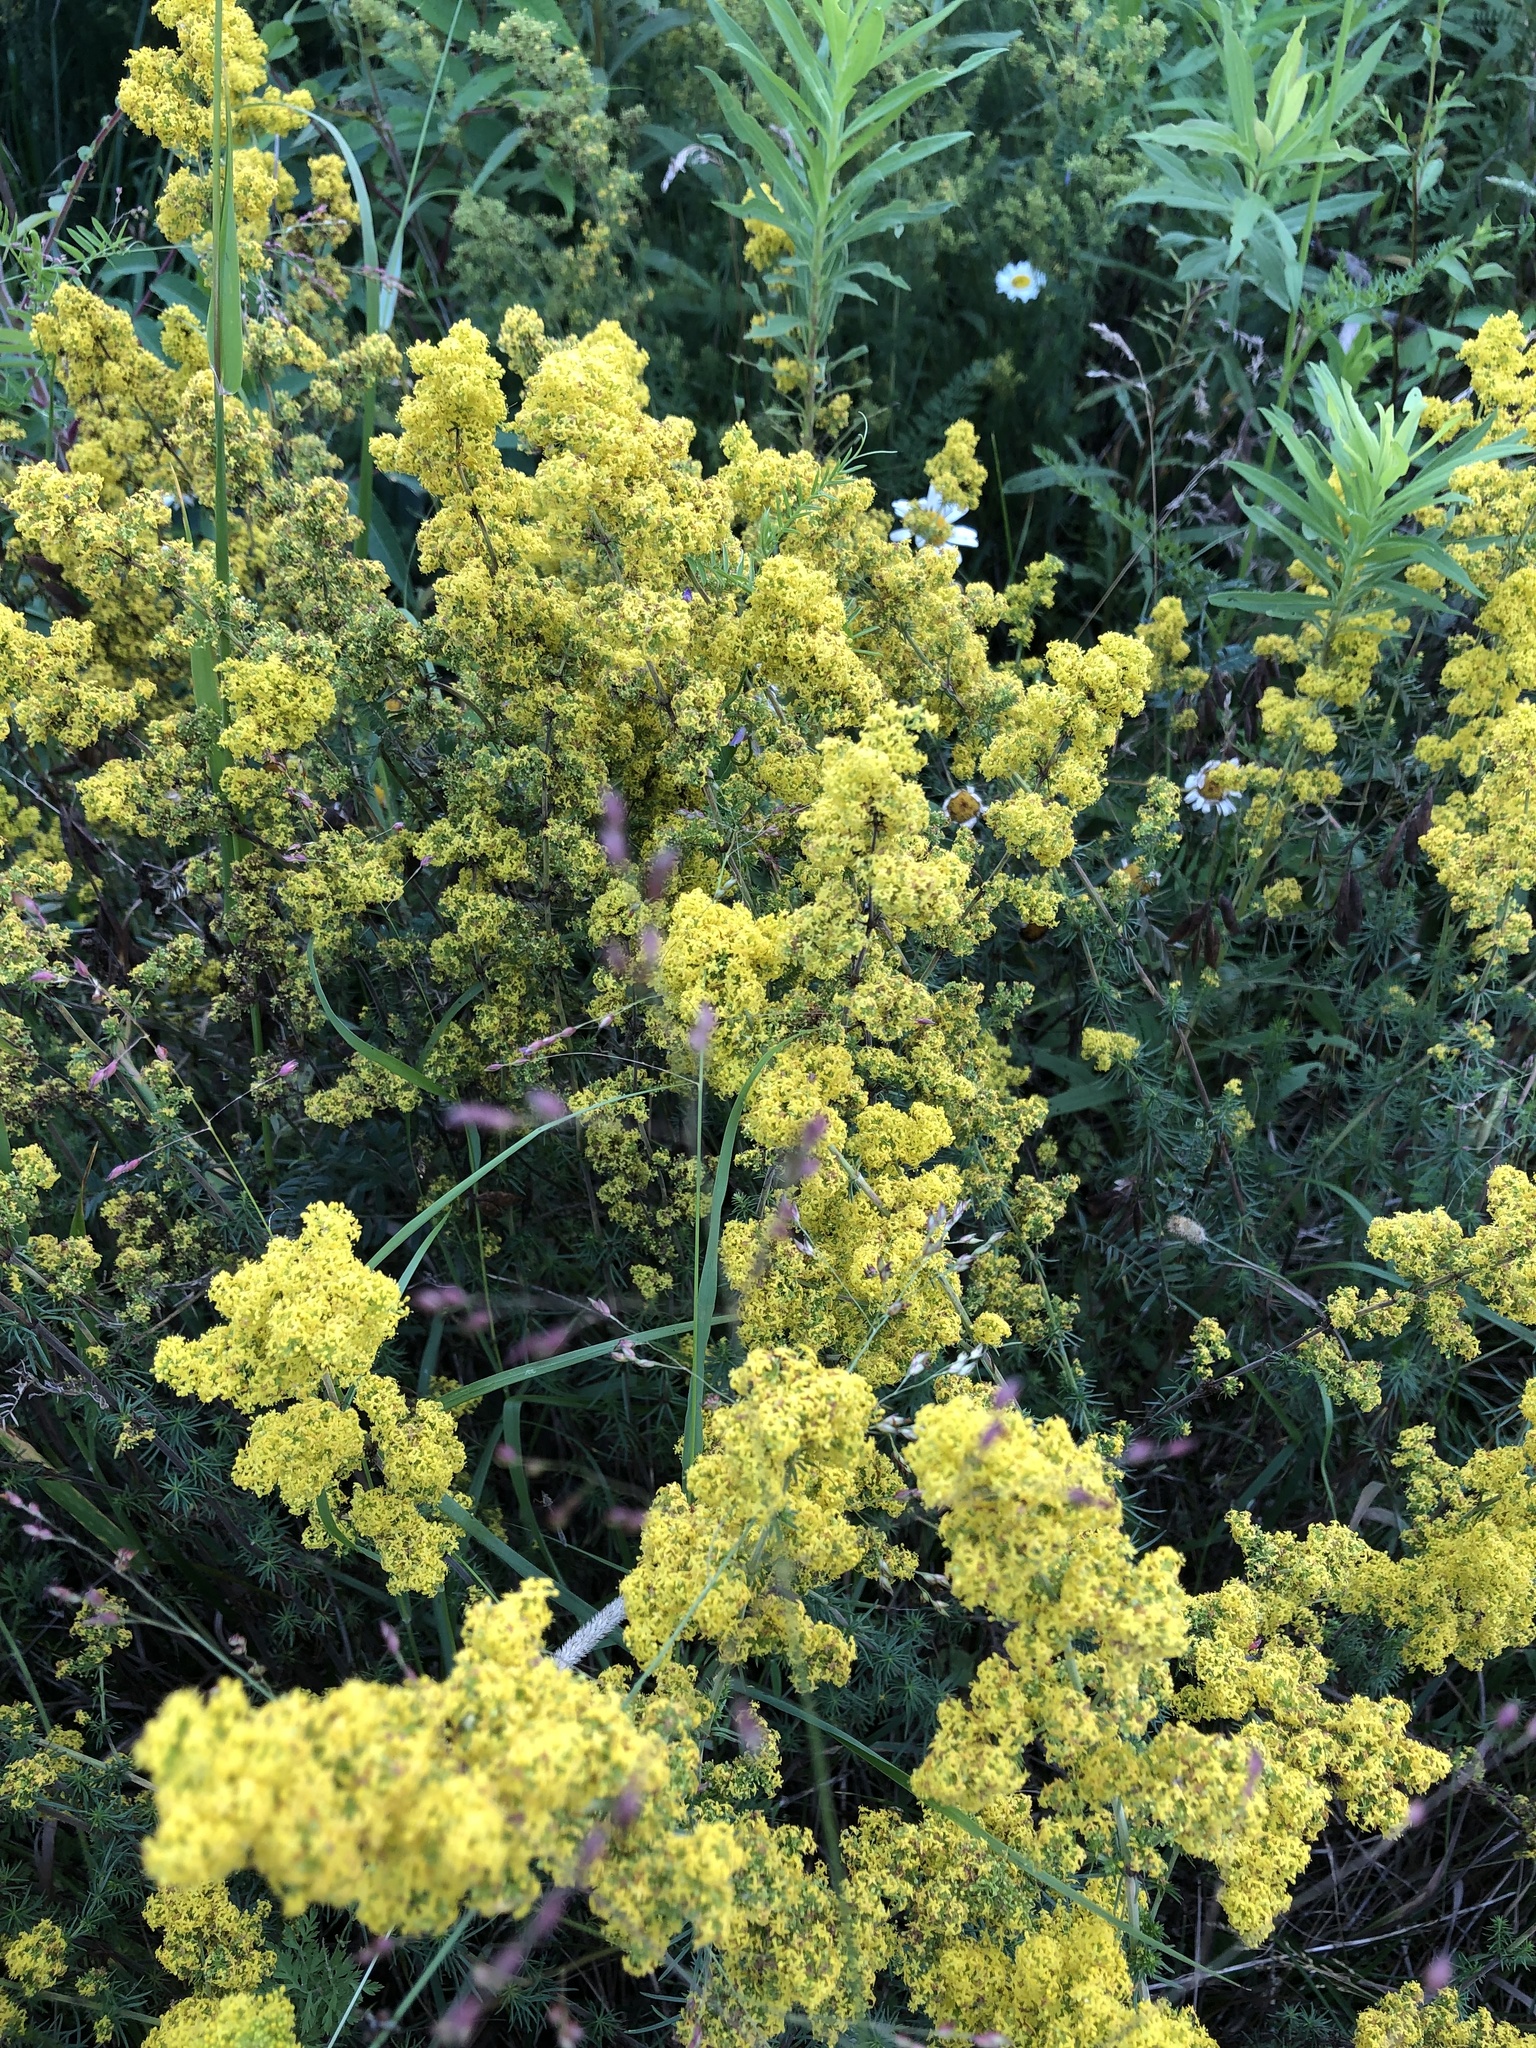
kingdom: Plantae
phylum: Tracheophyta
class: Magnoliopsida
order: Gentianales
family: Rubiaceae
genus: Galium
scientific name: Galium verum
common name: Lady's bedstraw
